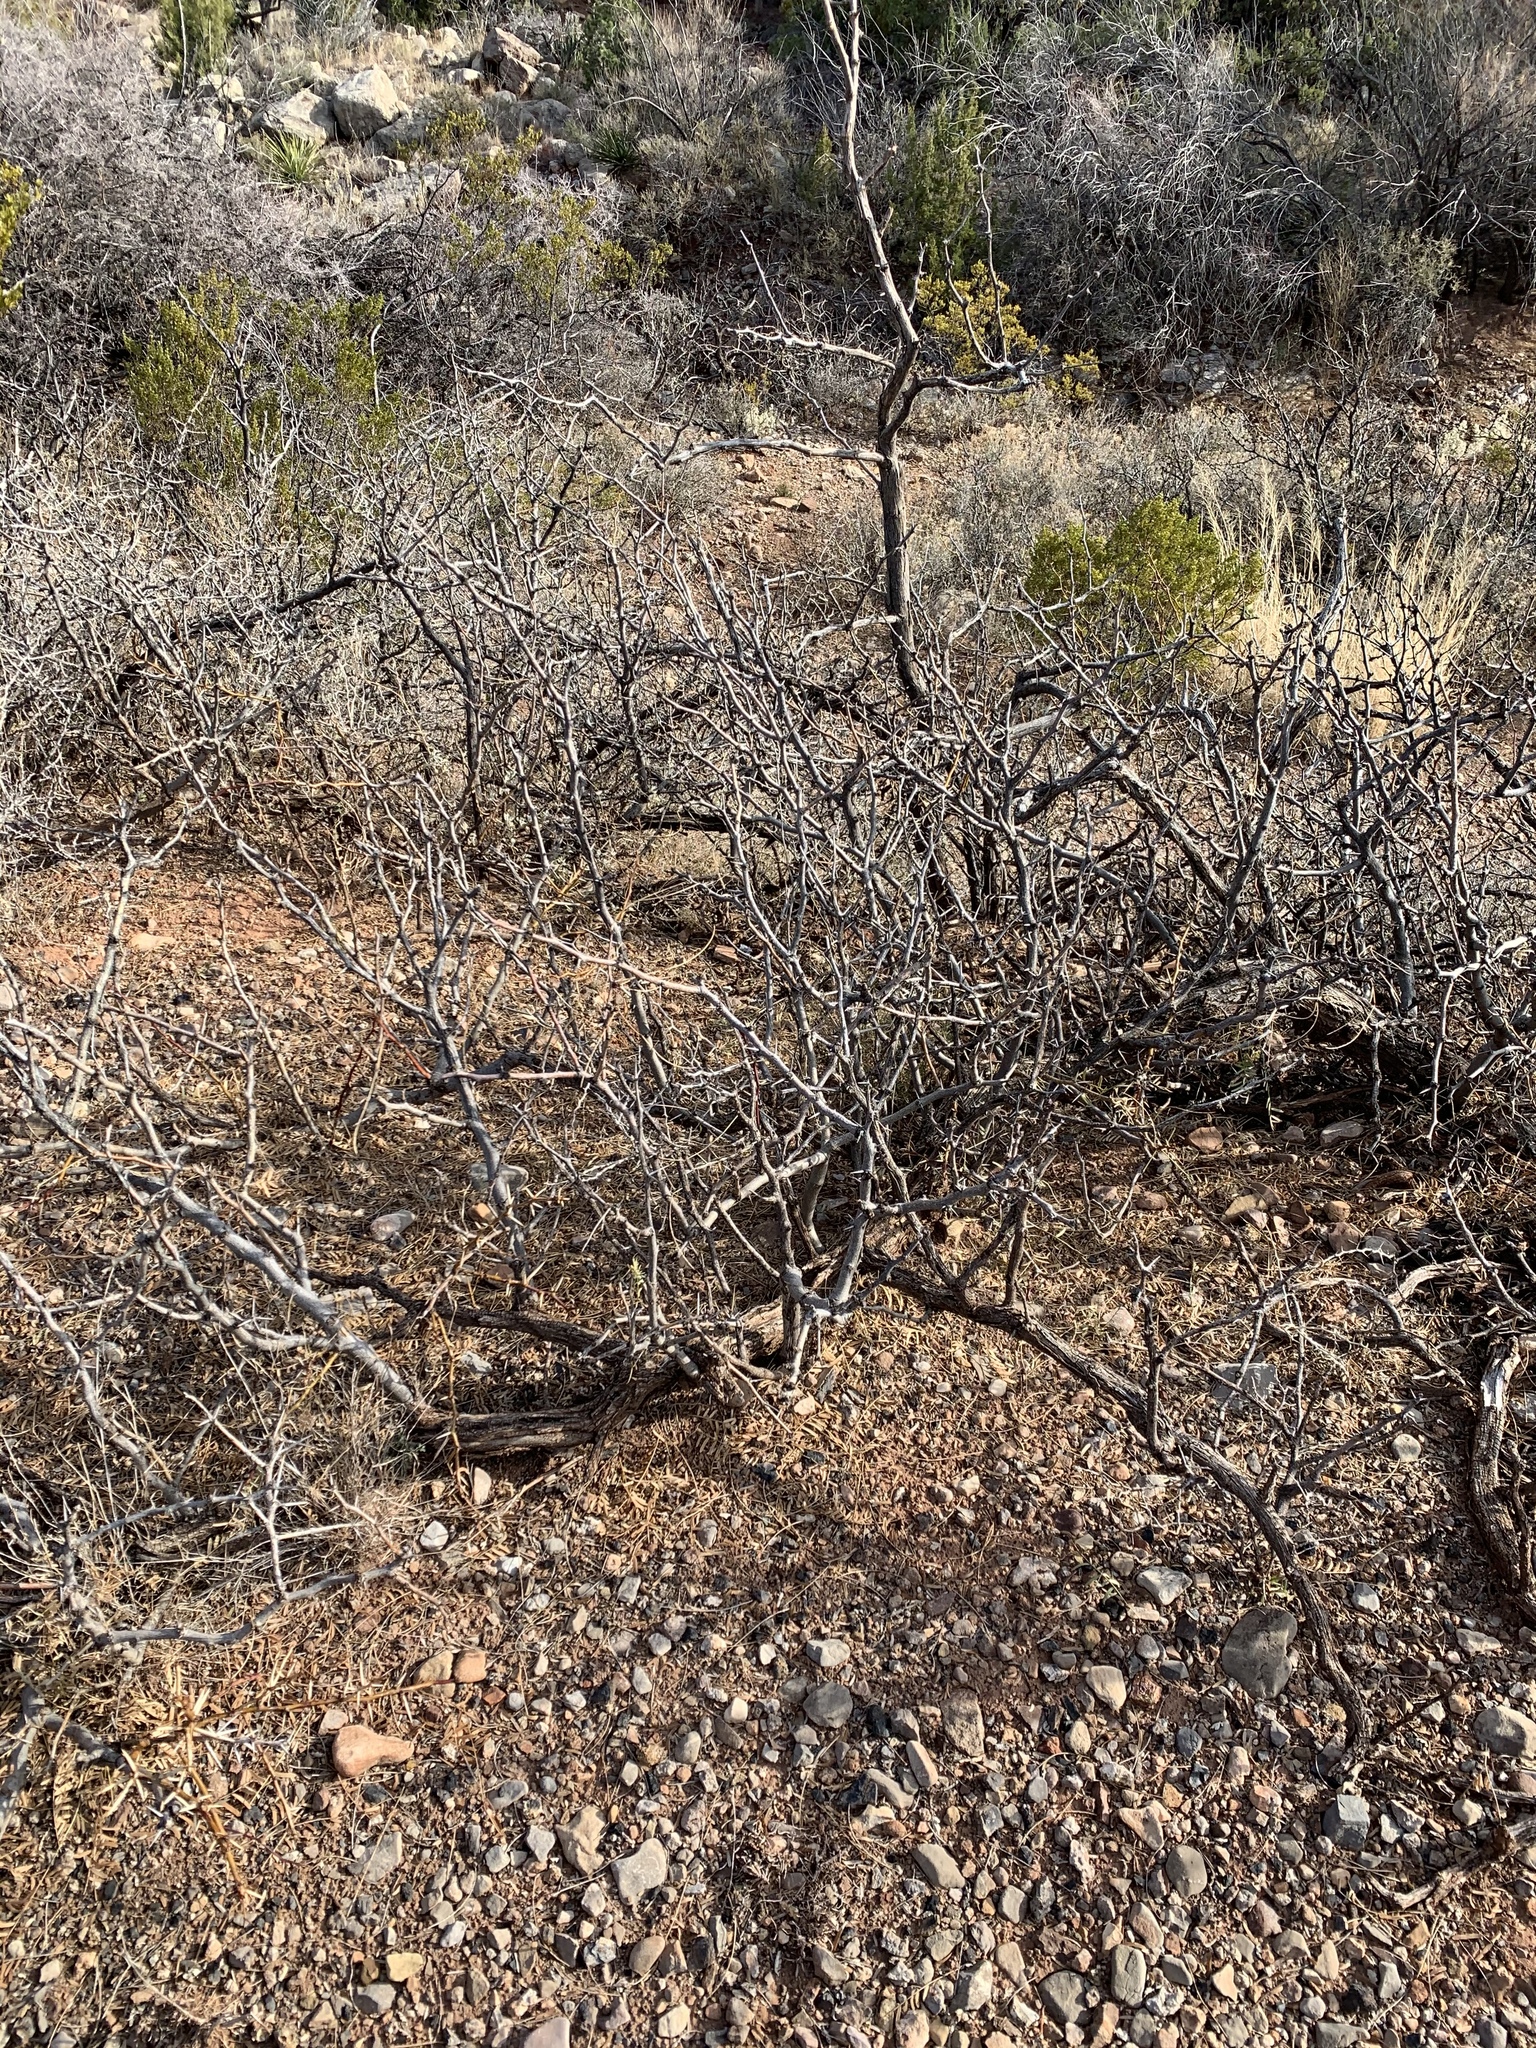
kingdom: Plantae
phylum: Tracheophyta
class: Magnoliopsida
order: Fabales
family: Fabaceae
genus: Prosopis
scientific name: Prosopis glandulosa
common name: Honey mesquite
